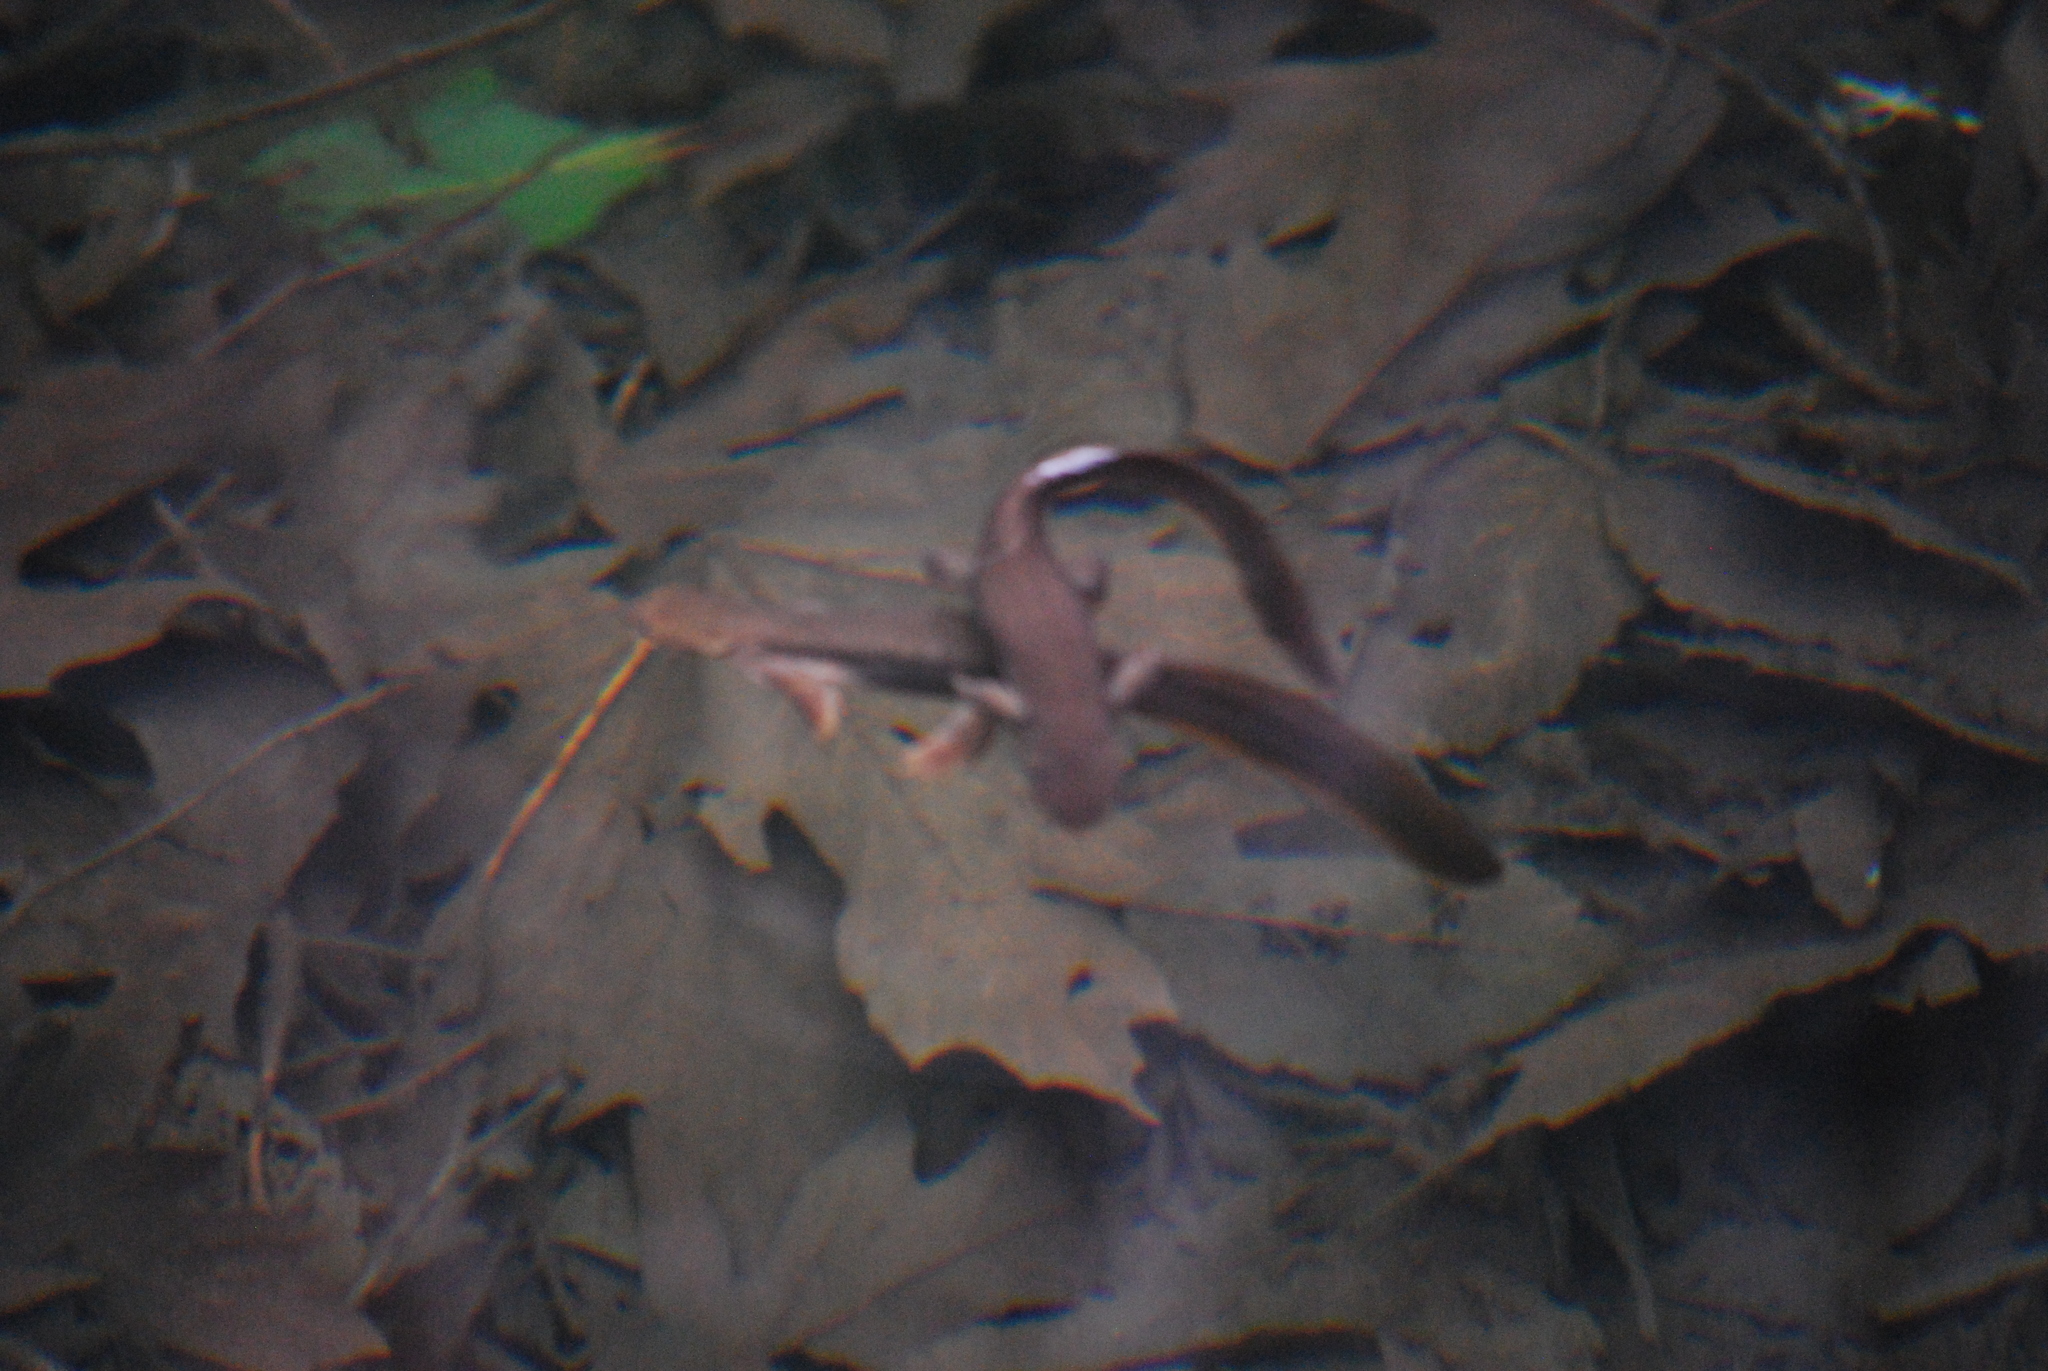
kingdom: Animalia
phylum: Chordata
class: Amphibia
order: Caudata
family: Salamandridae
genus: Taricha
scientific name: Taricha granulosa
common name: Roughskin newt
